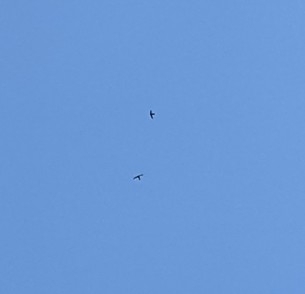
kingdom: Animalia
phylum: Chordata
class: Aves
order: Apodiformes
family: Apodidae
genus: Apus
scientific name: Apus apus
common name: Common swift
